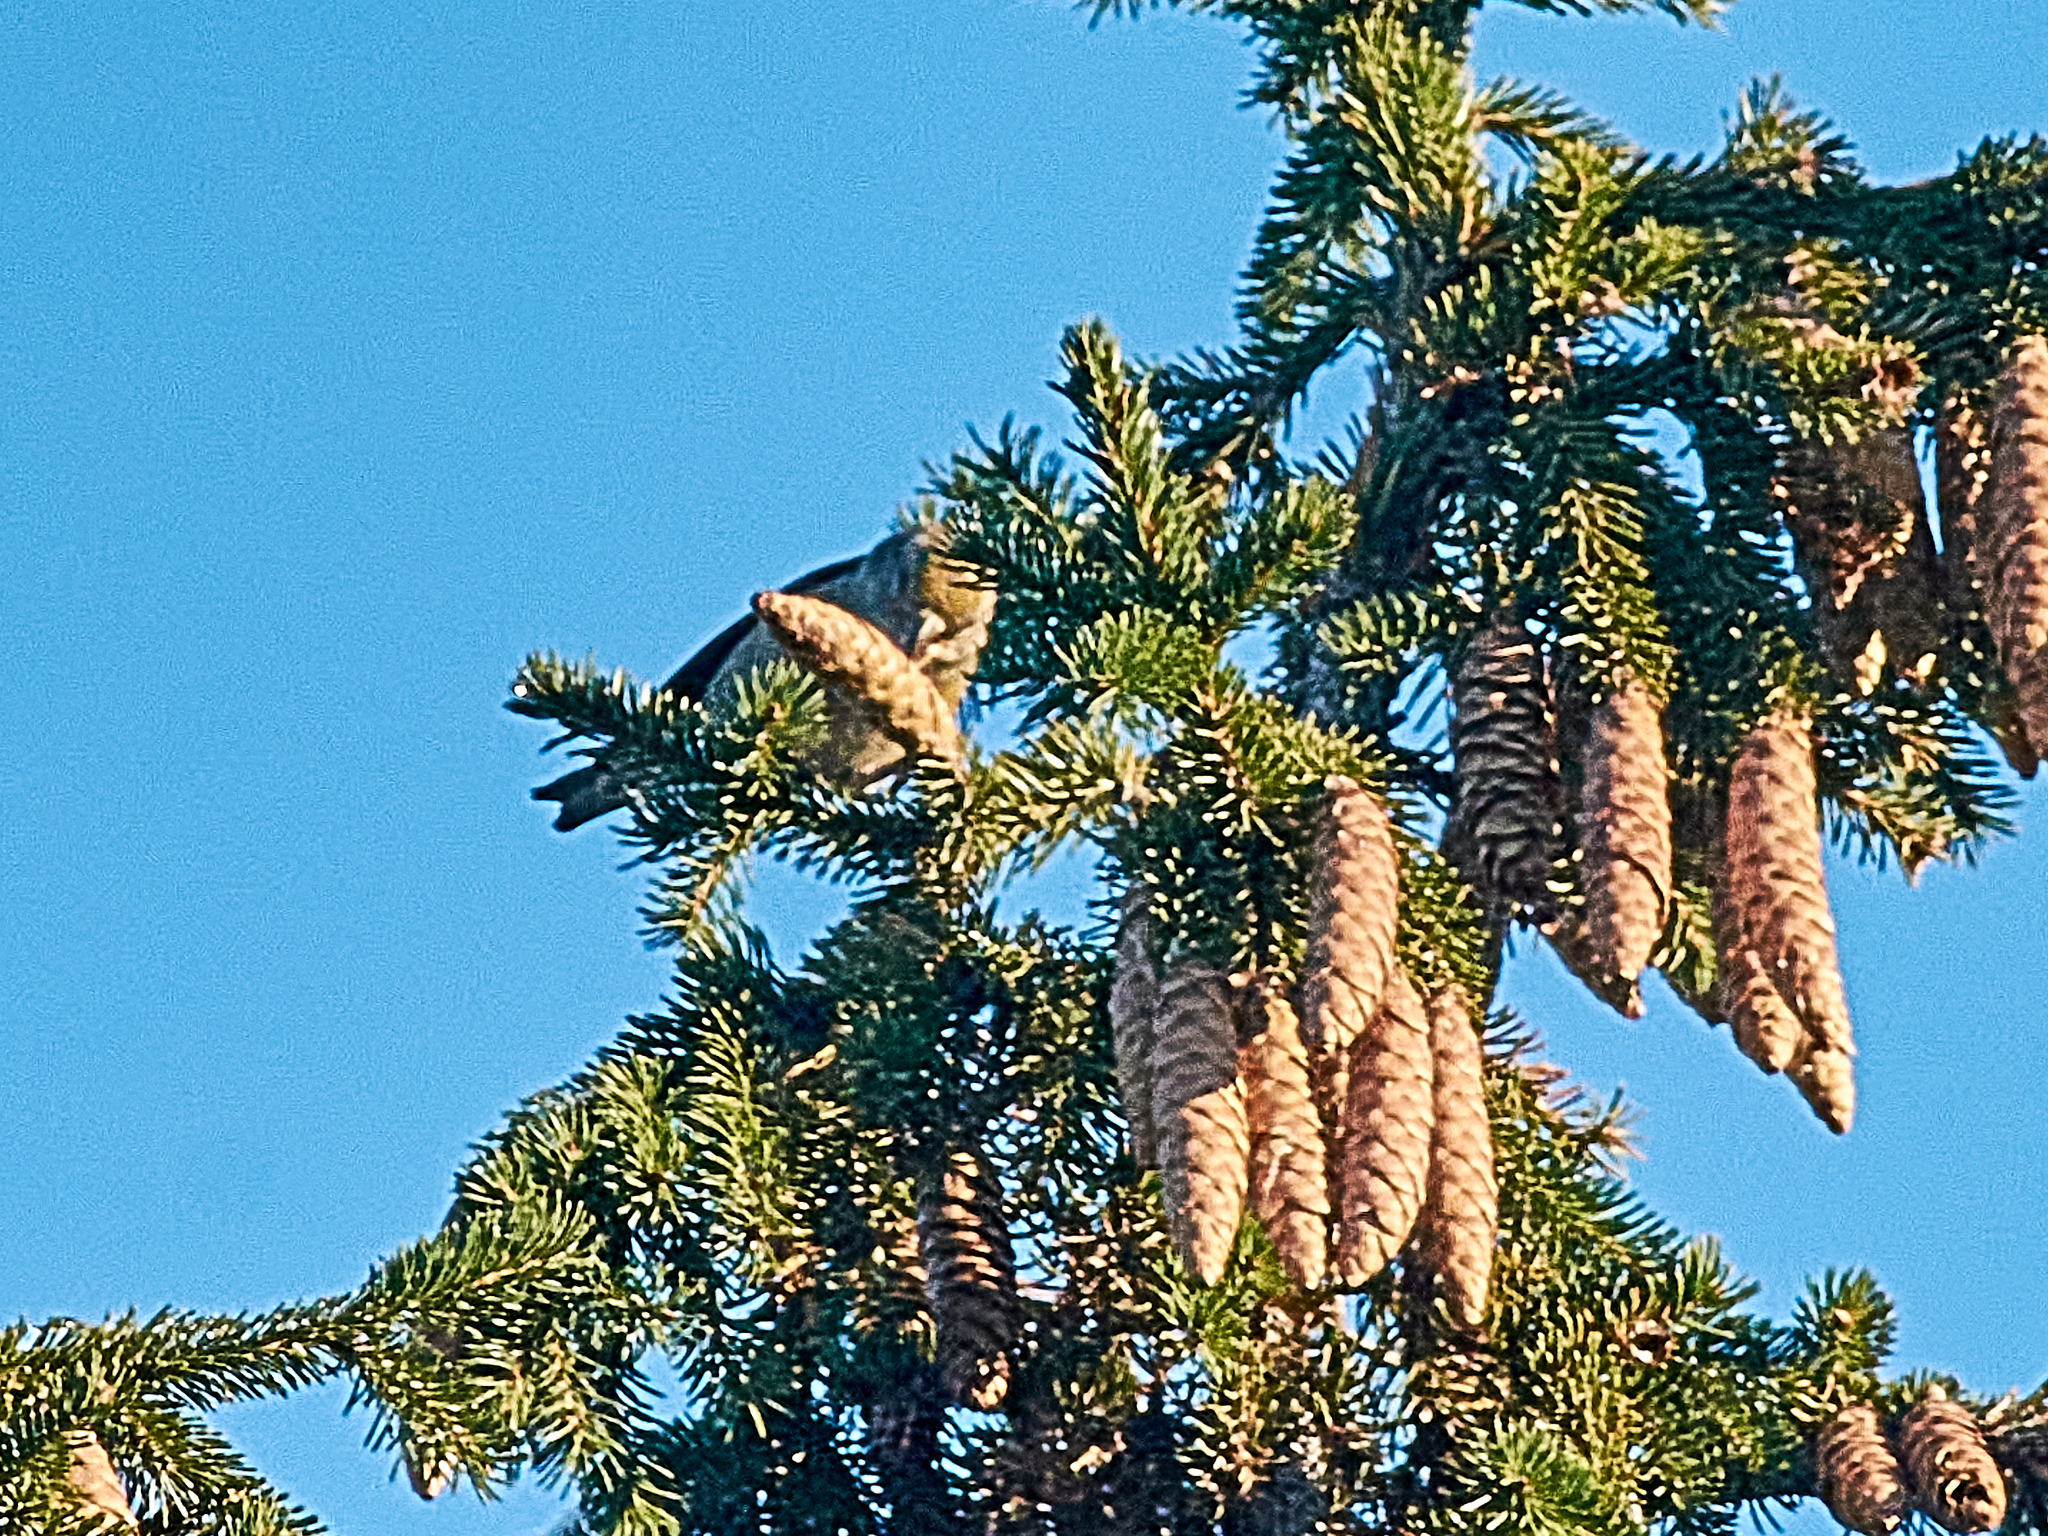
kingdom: Animalia
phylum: Chordata
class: Aves
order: Passeriformes
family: Fringillidae
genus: Loxia
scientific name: Loxia curvirostra
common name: Red crossbill
